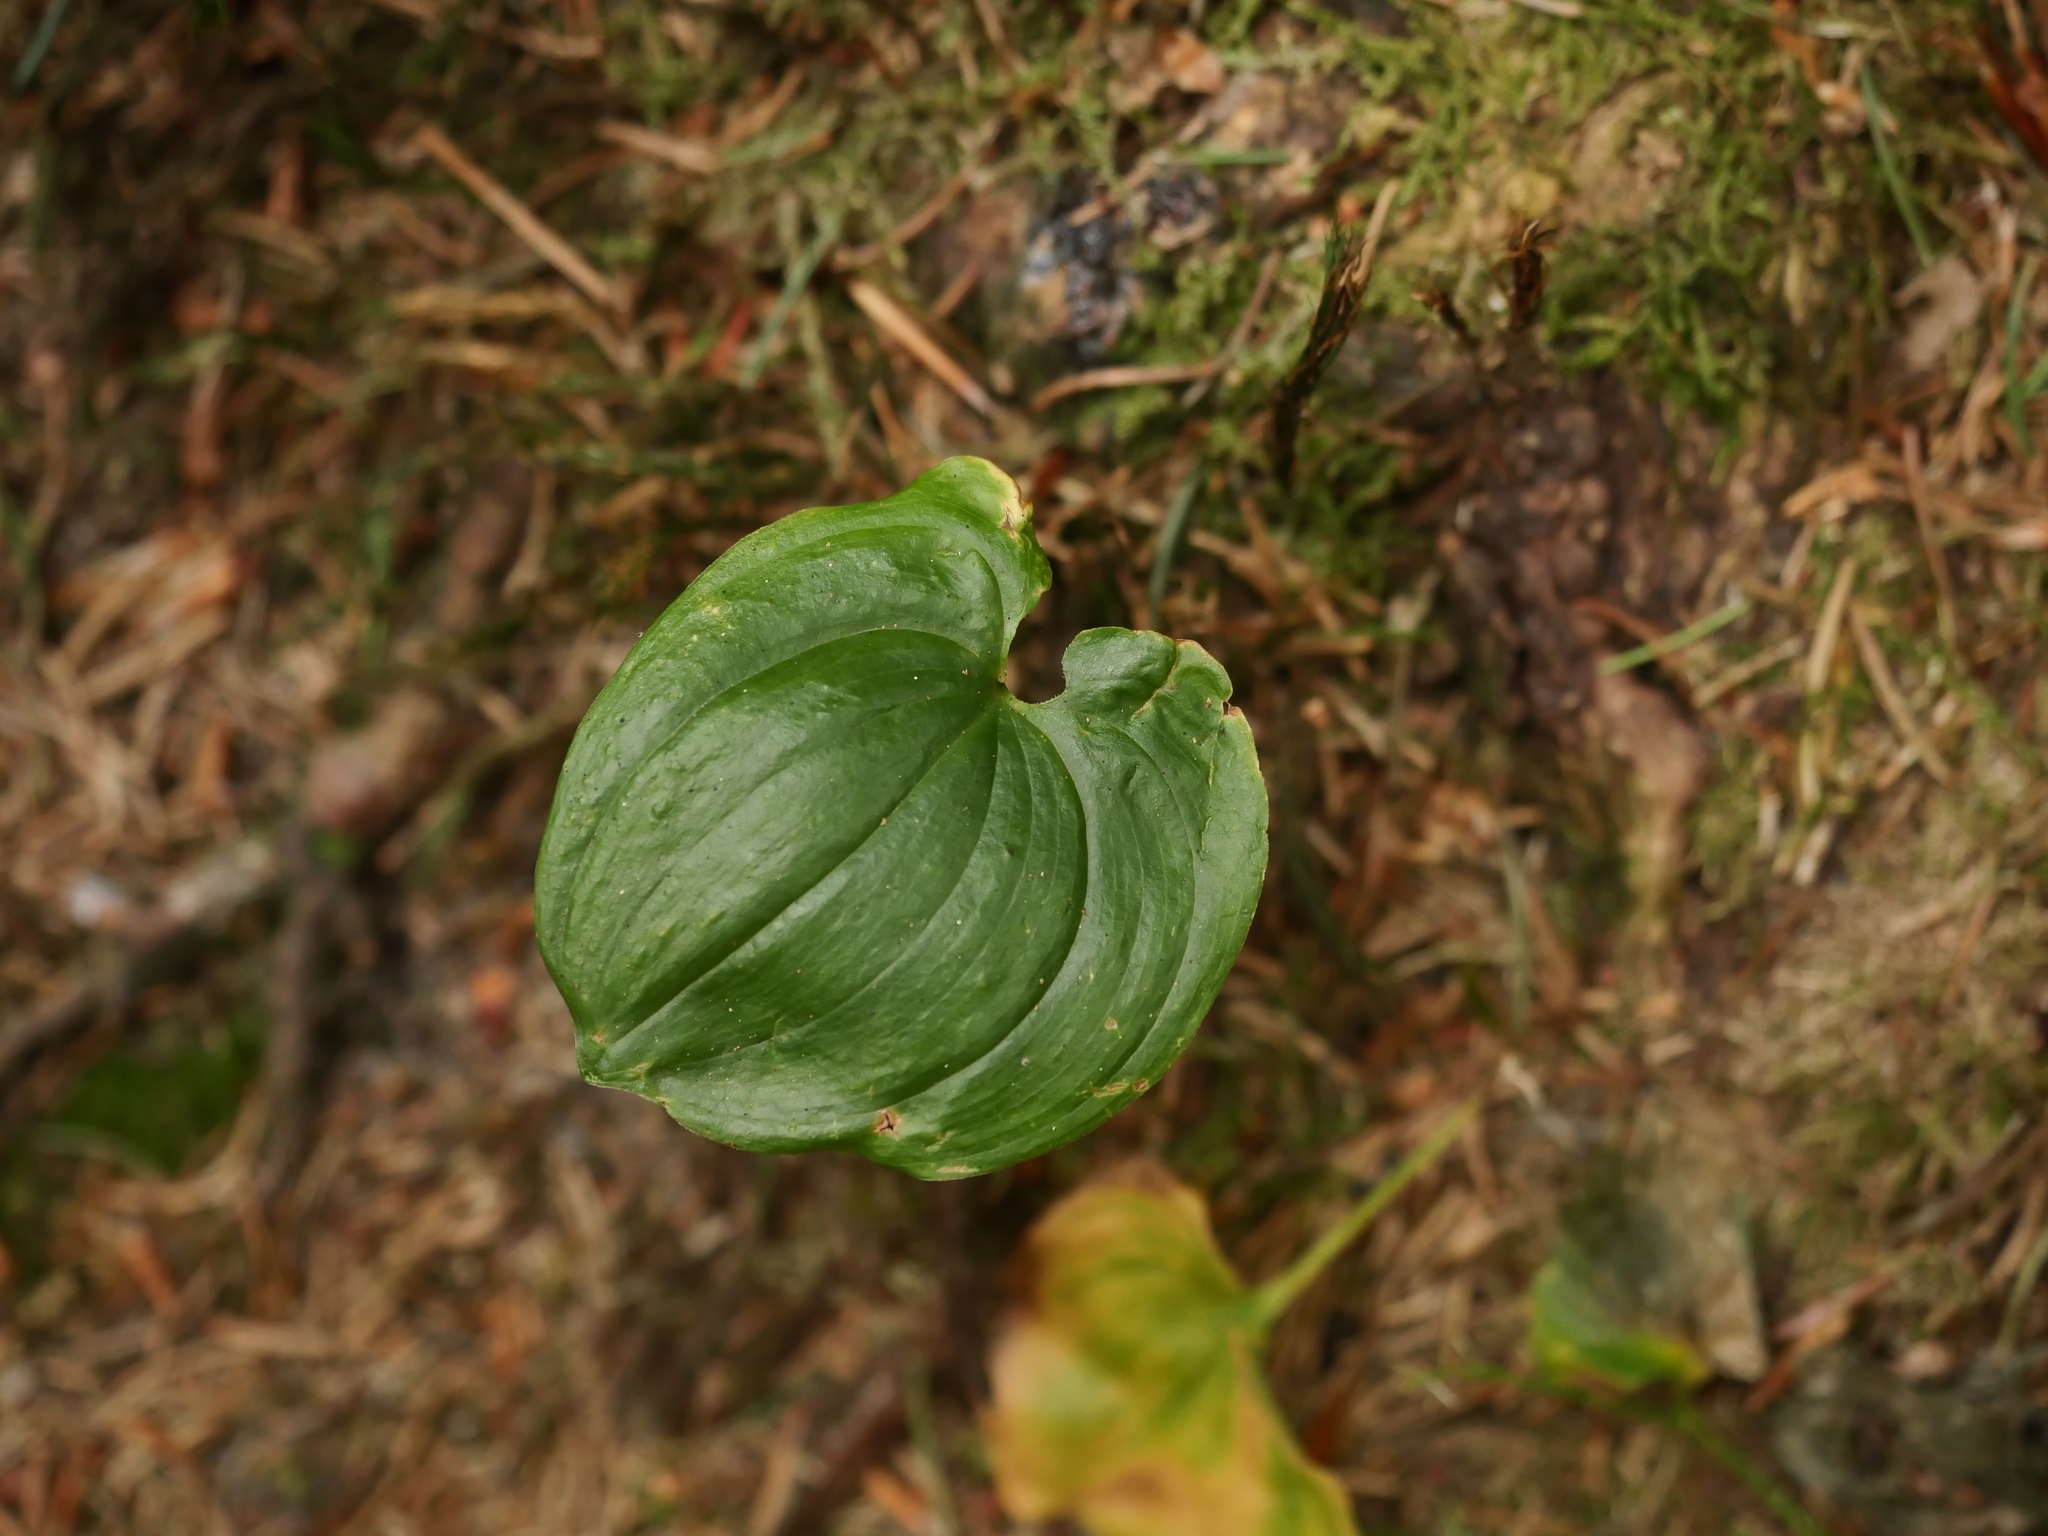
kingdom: Plantae
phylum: Tracheophyta
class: Liliopsida
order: Asparagales
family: Asparagaceae
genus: Maianthemum
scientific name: Maianthemum bifolium
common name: May lily
